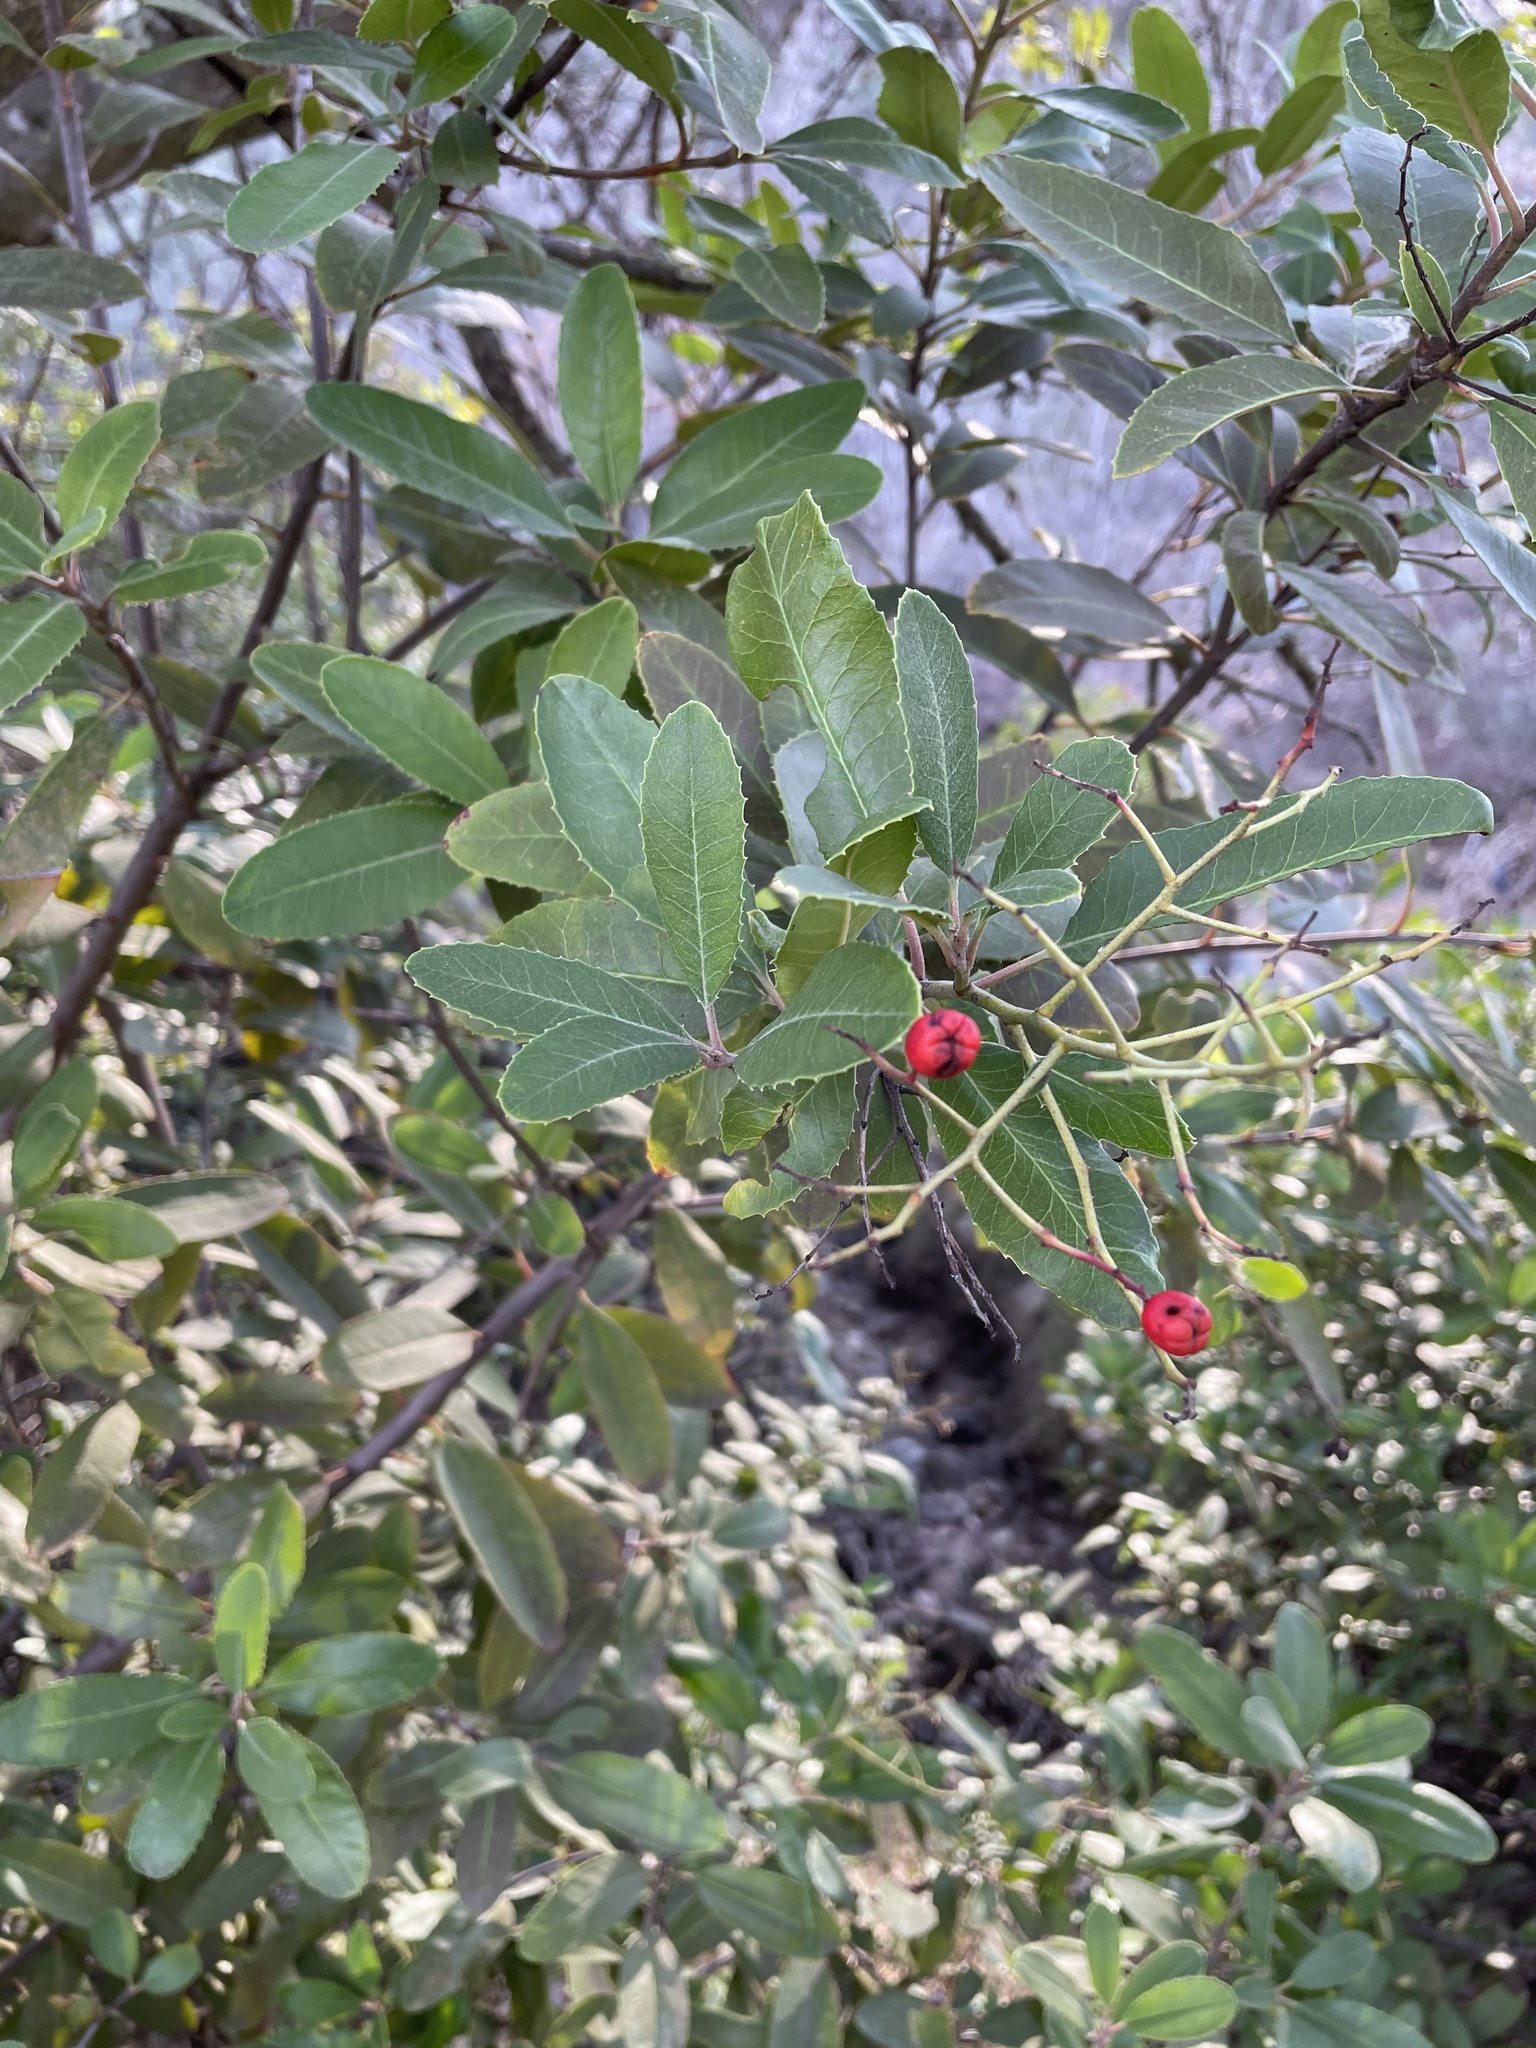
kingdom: Plantae
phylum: Tracheophyta
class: Magnoliopsida
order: Rosales
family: Rosaceae
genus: Heteromeles
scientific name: Heteromeles arbutifolia
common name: California-holly
